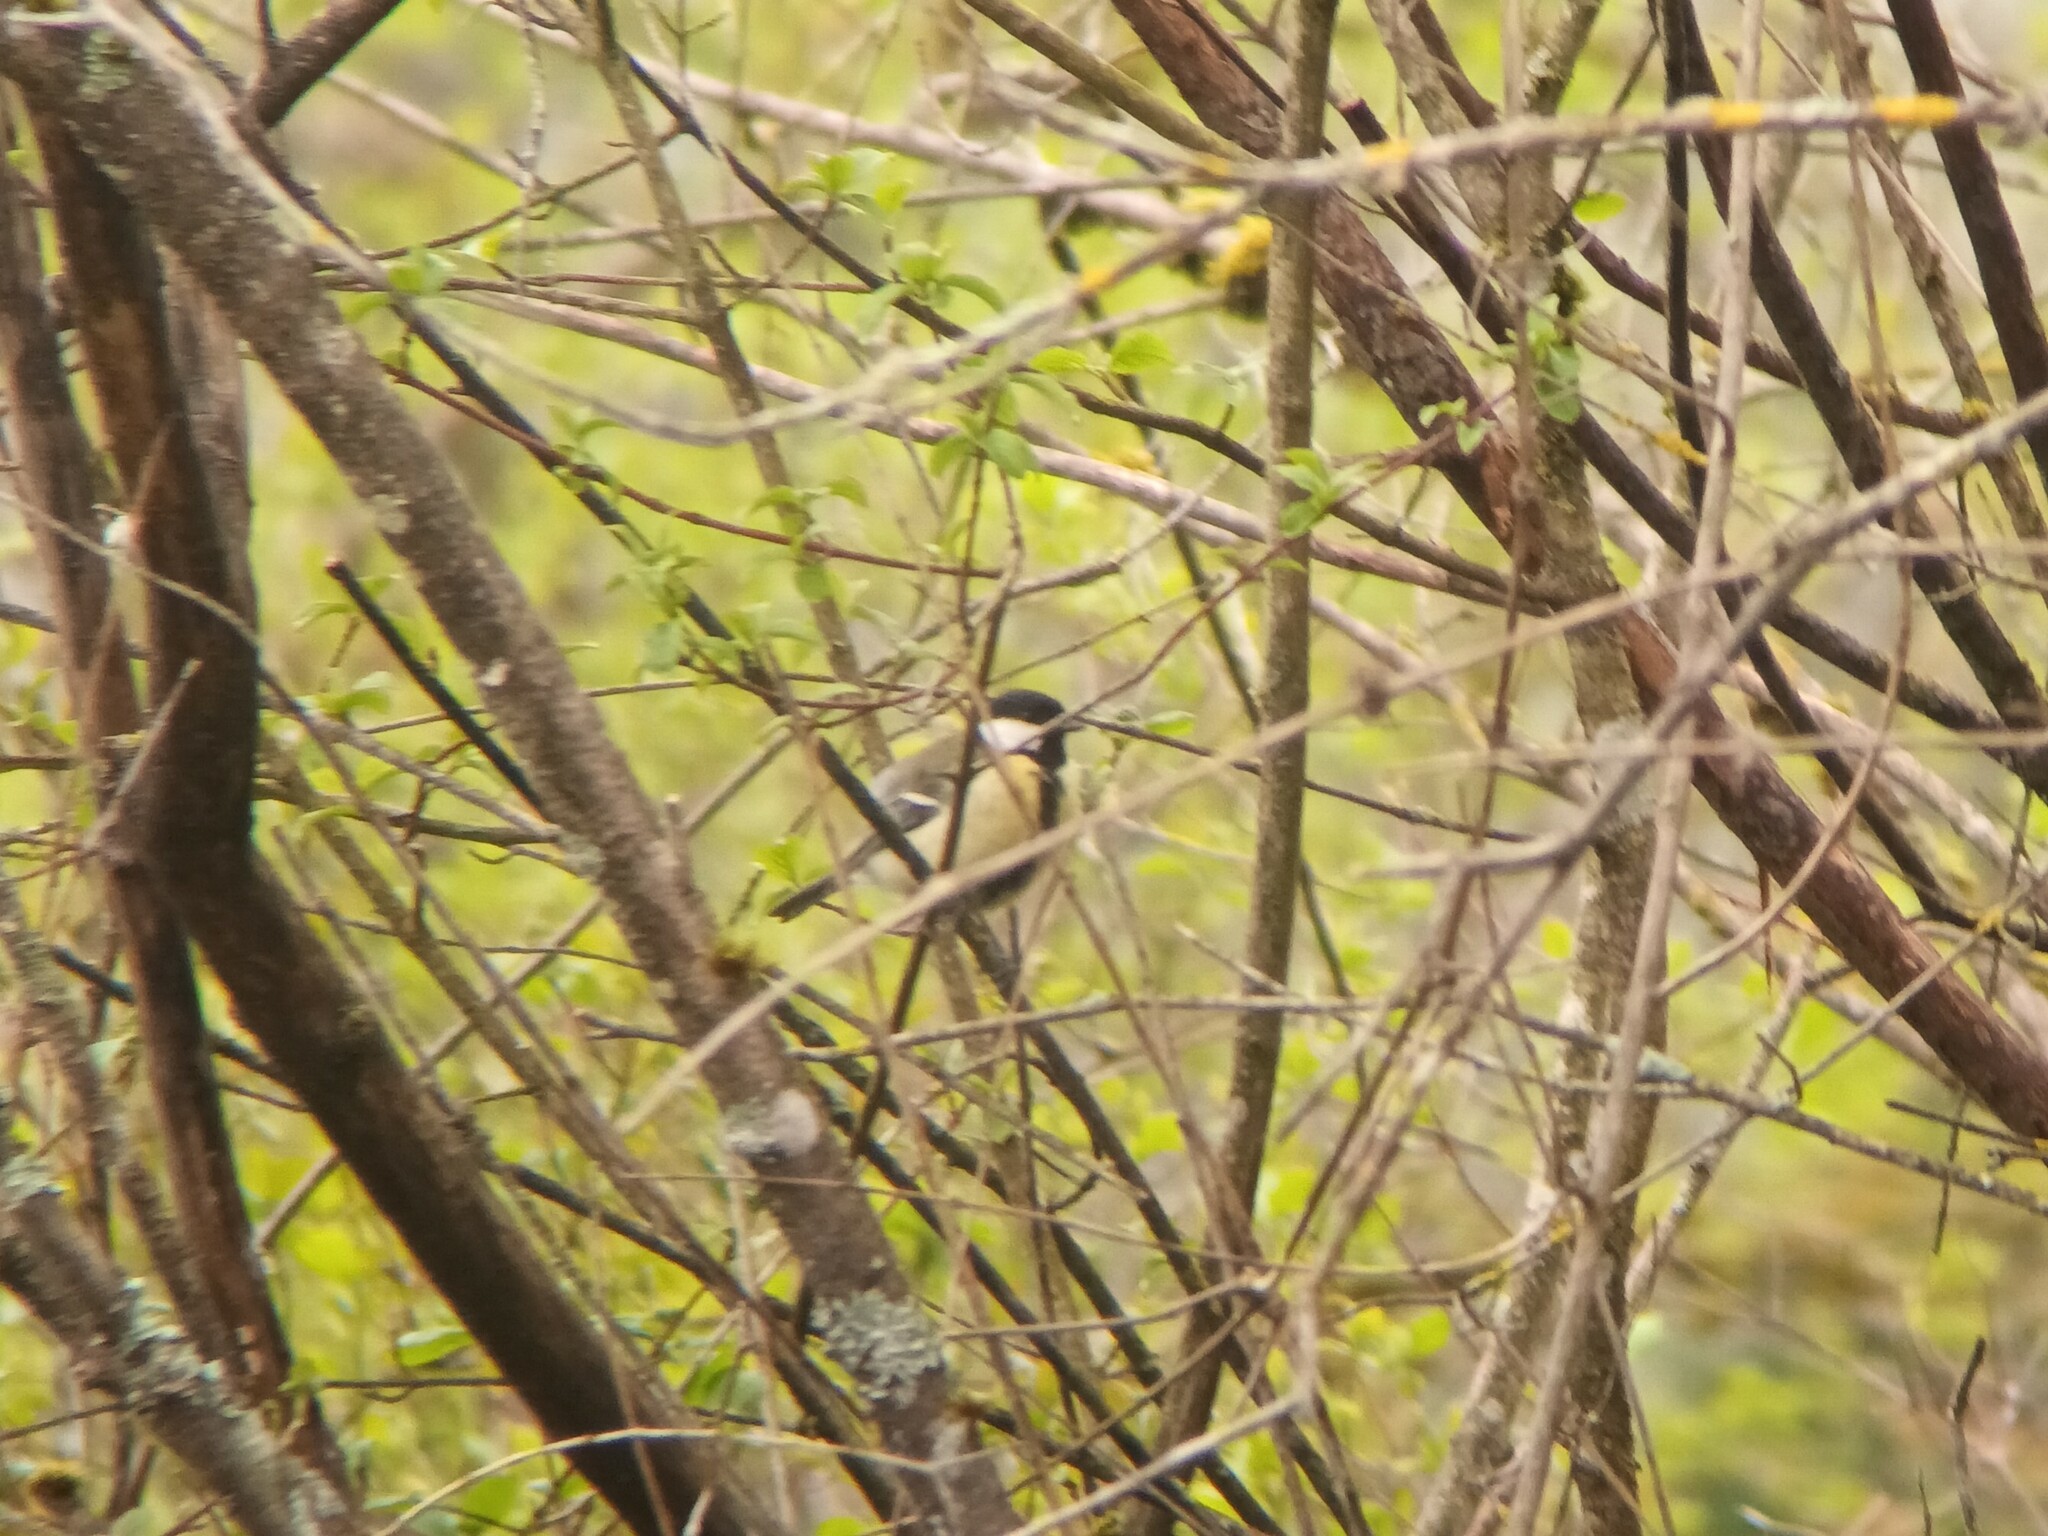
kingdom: Animalia
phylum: Chordata
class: Aves
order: Passeriformes
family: Paridae
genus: Parus
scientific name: Parus major
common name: Great tit
